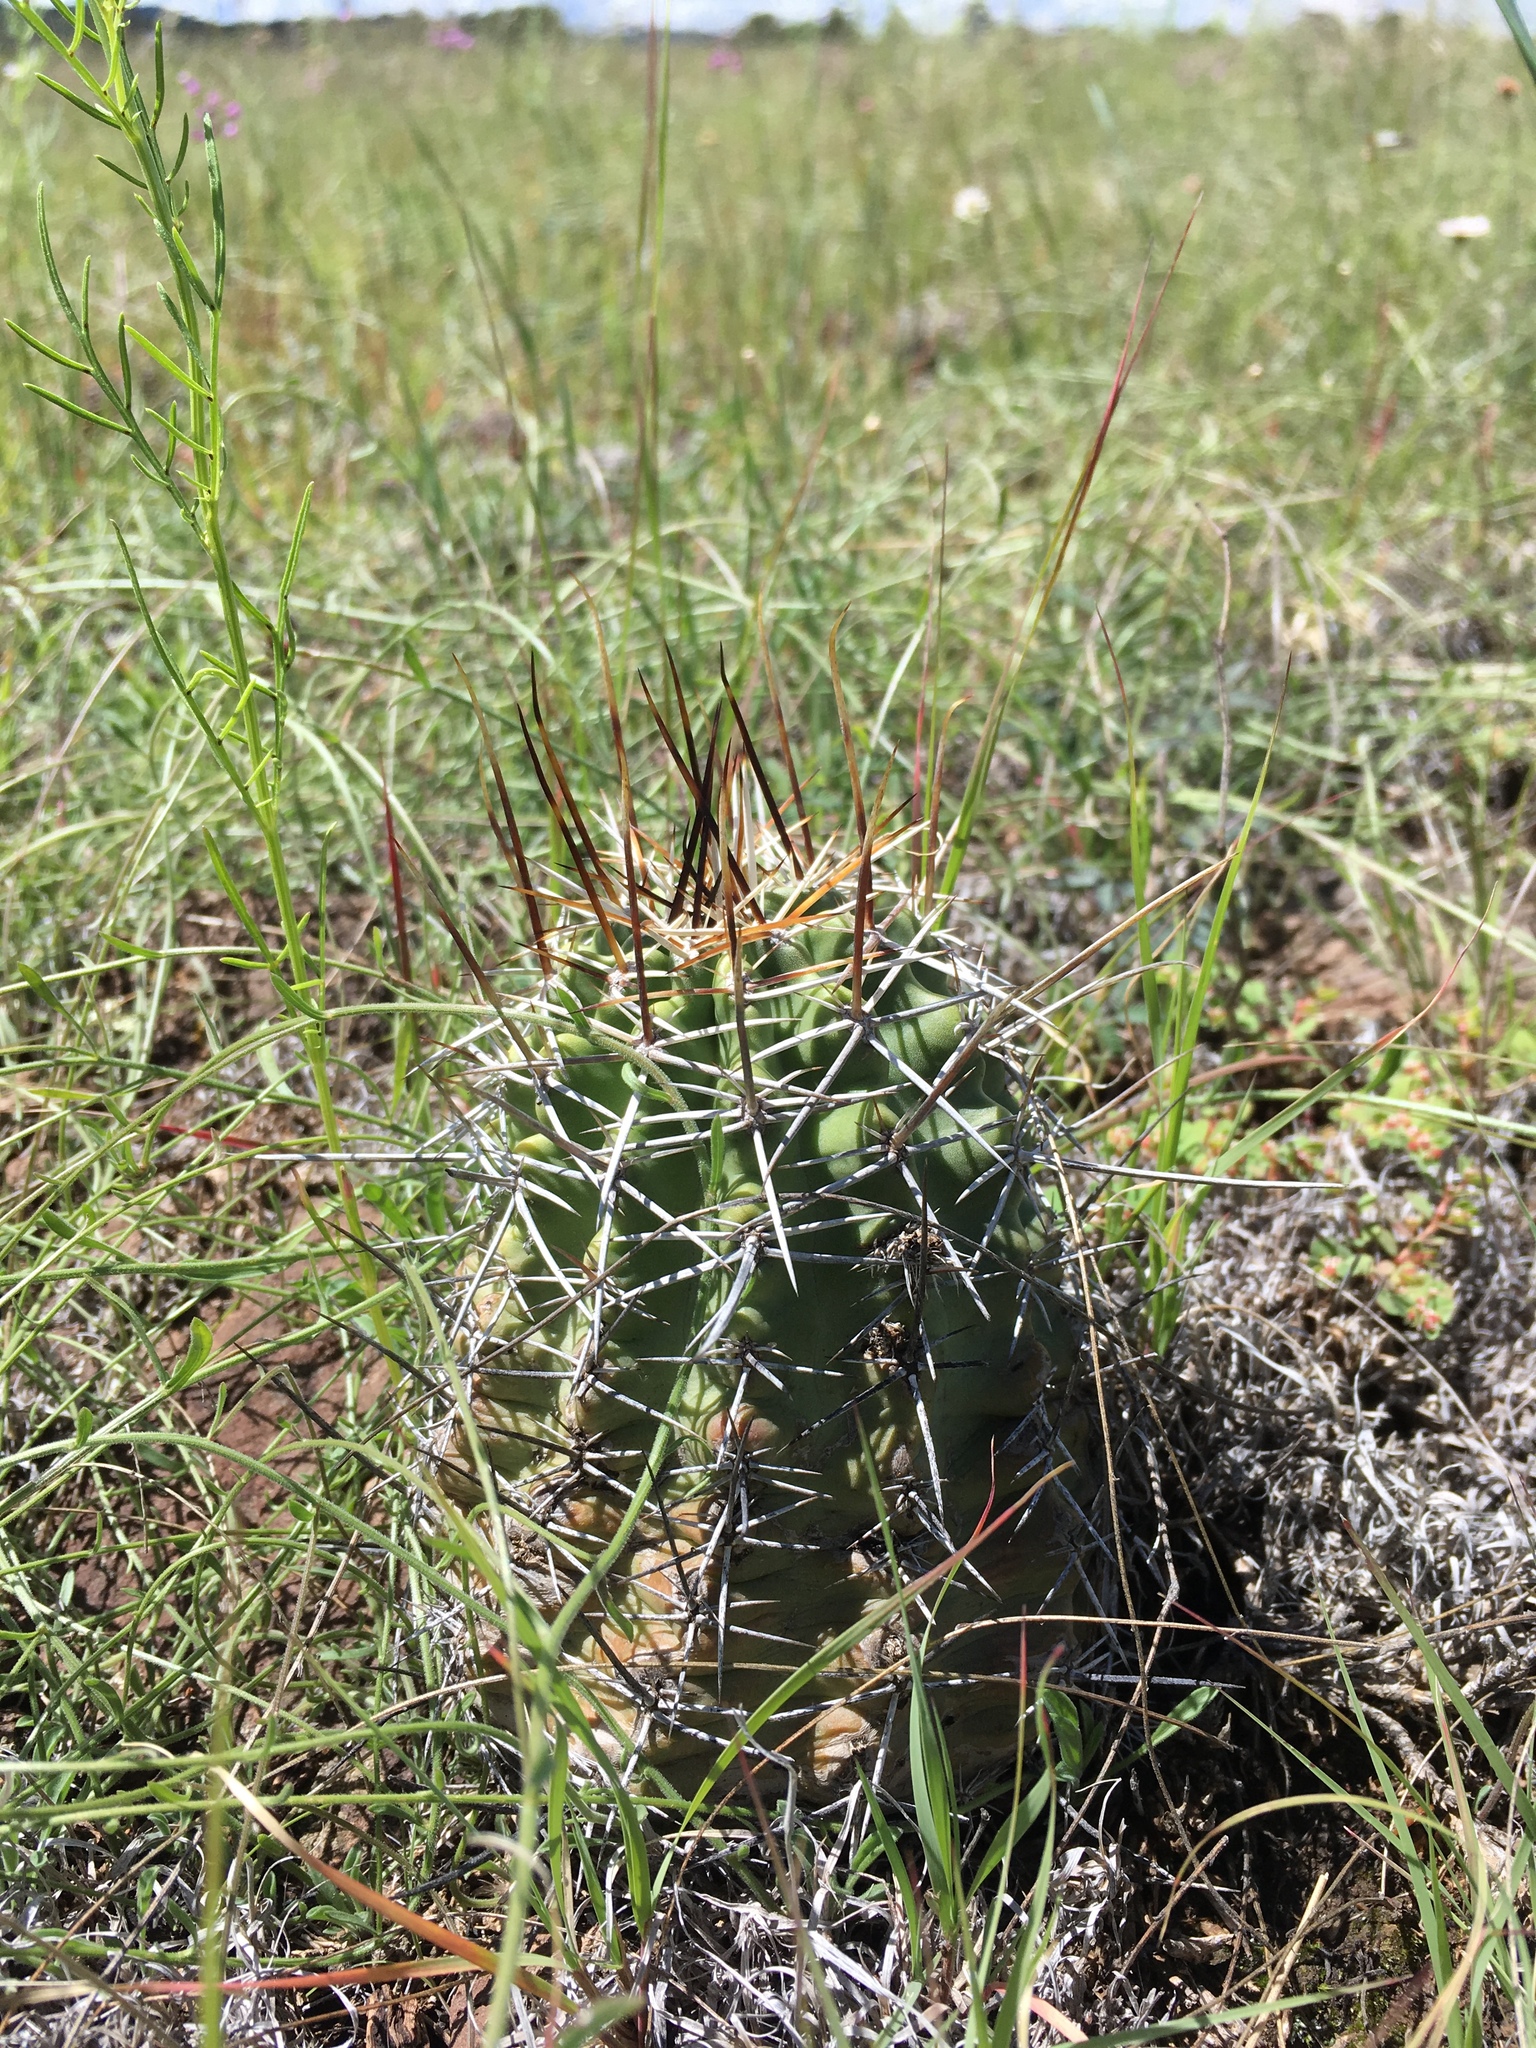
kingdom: Plantae
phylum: Tracheophyta
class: Magnoliopsida
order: Caryophyllales
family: Cactaceae
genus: Echinocereus
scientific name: Echinocereus fendleri
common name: Fendler's hedgehog cactus
